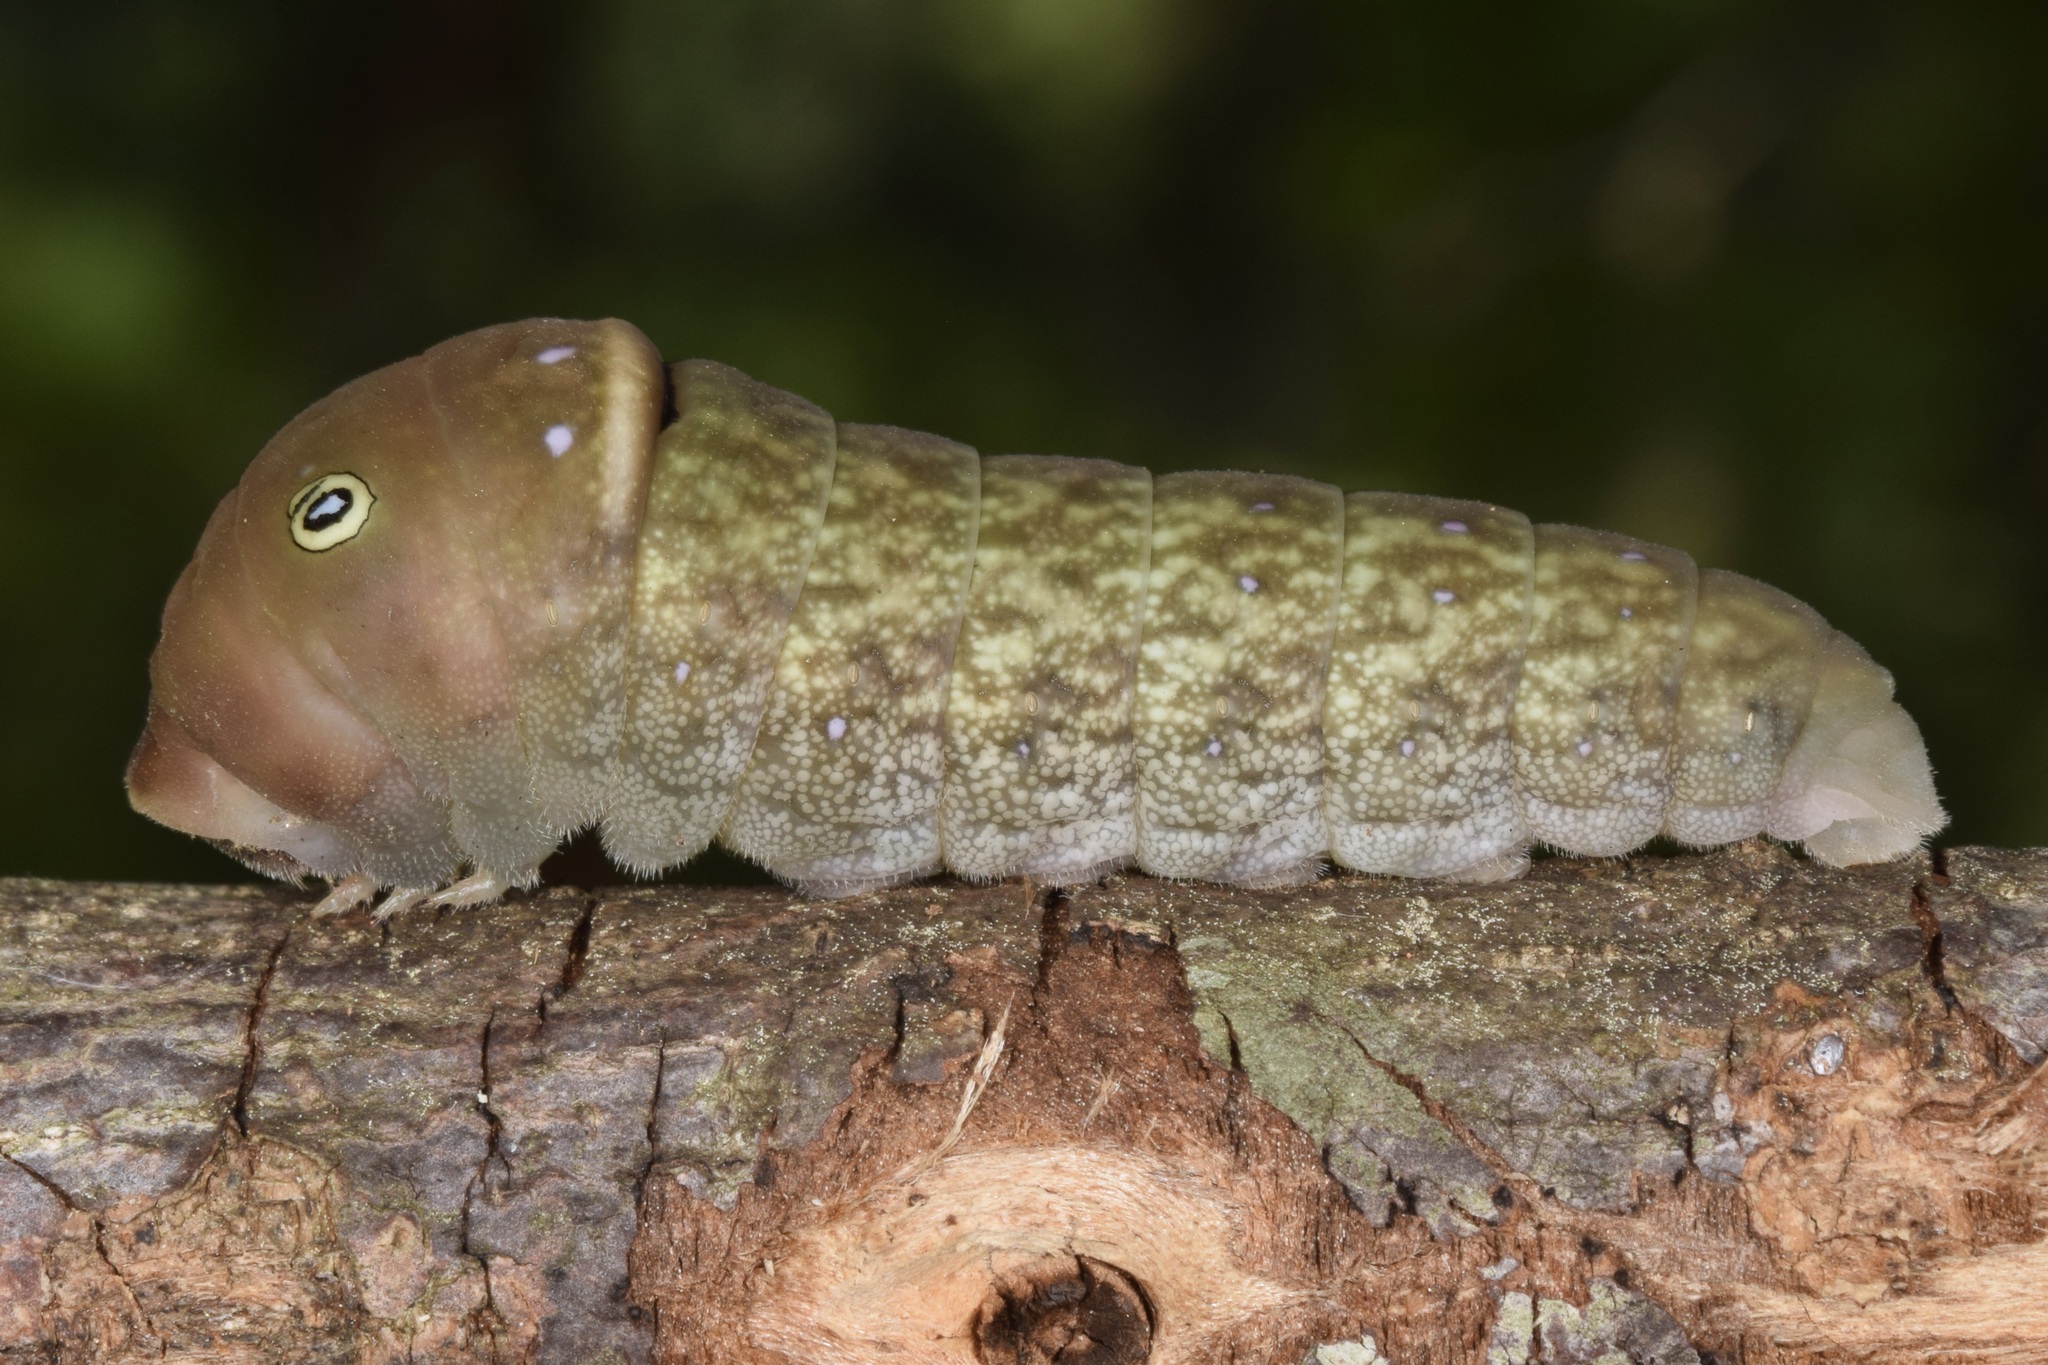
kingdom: Animalia
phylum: Arthropoda
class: Insecta
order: Lepidoptera
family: Papilionidae
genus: Papilio
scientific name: Papilio glaucus
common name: Tiger swallowtail
